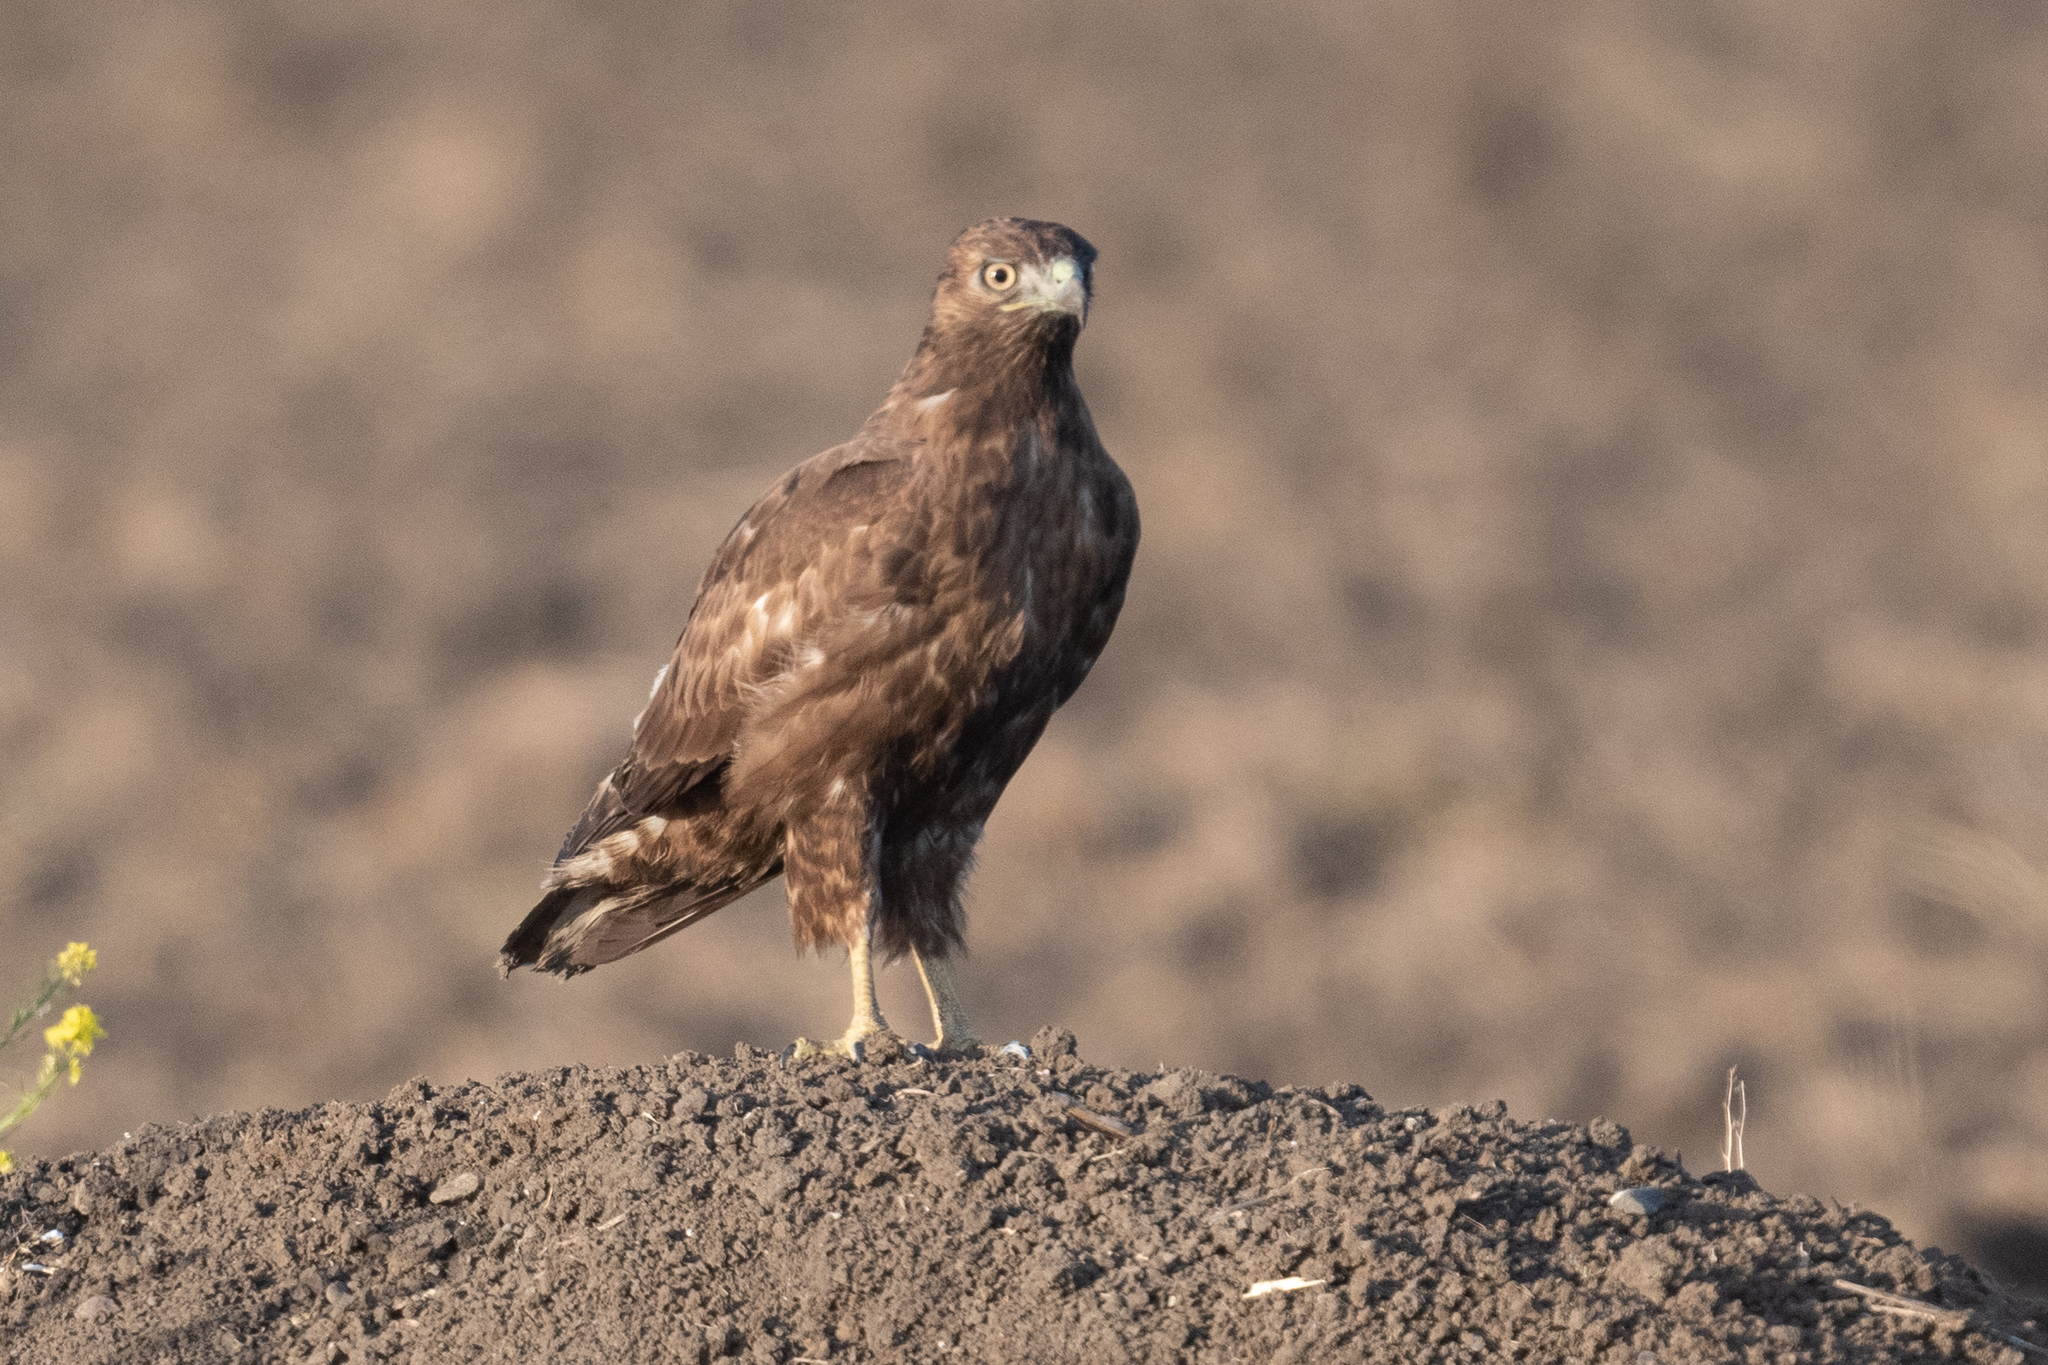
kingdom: Animalia
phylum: Chordata
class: Aves
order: Accipitriformes
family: Accipitridae
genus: Buteo
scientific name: Buteo jamaicensis
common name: Red-tailed hawk
